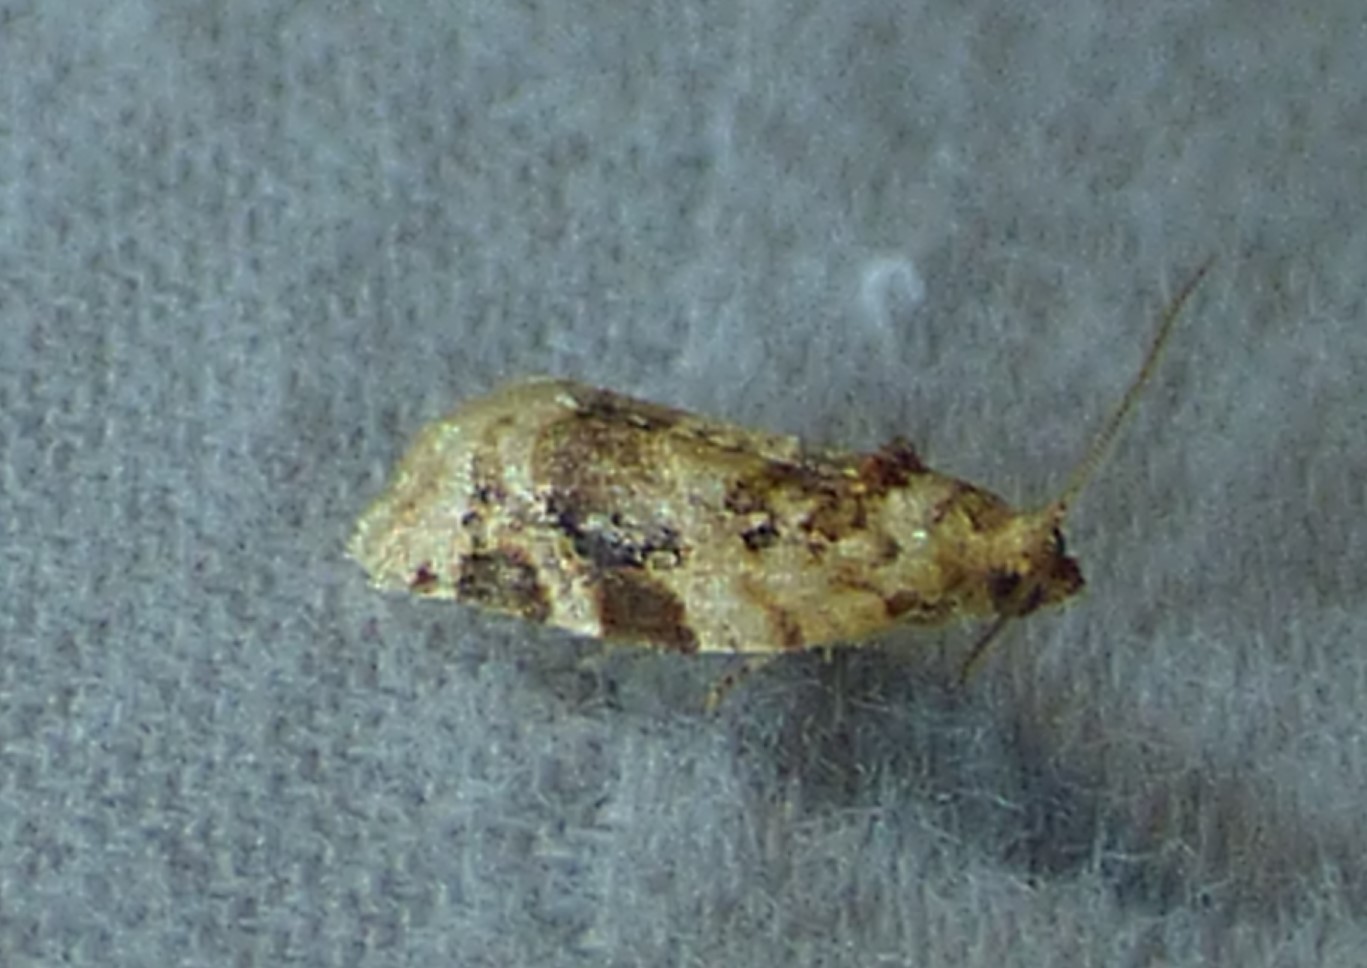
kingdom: Animalia
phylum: Arthropoda
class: Insecta
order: Lepidoptera
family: Tortricidae
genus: Argyrotaenia
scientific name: Argyrotaenia velutinana
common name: Red-banded leafroller moth
